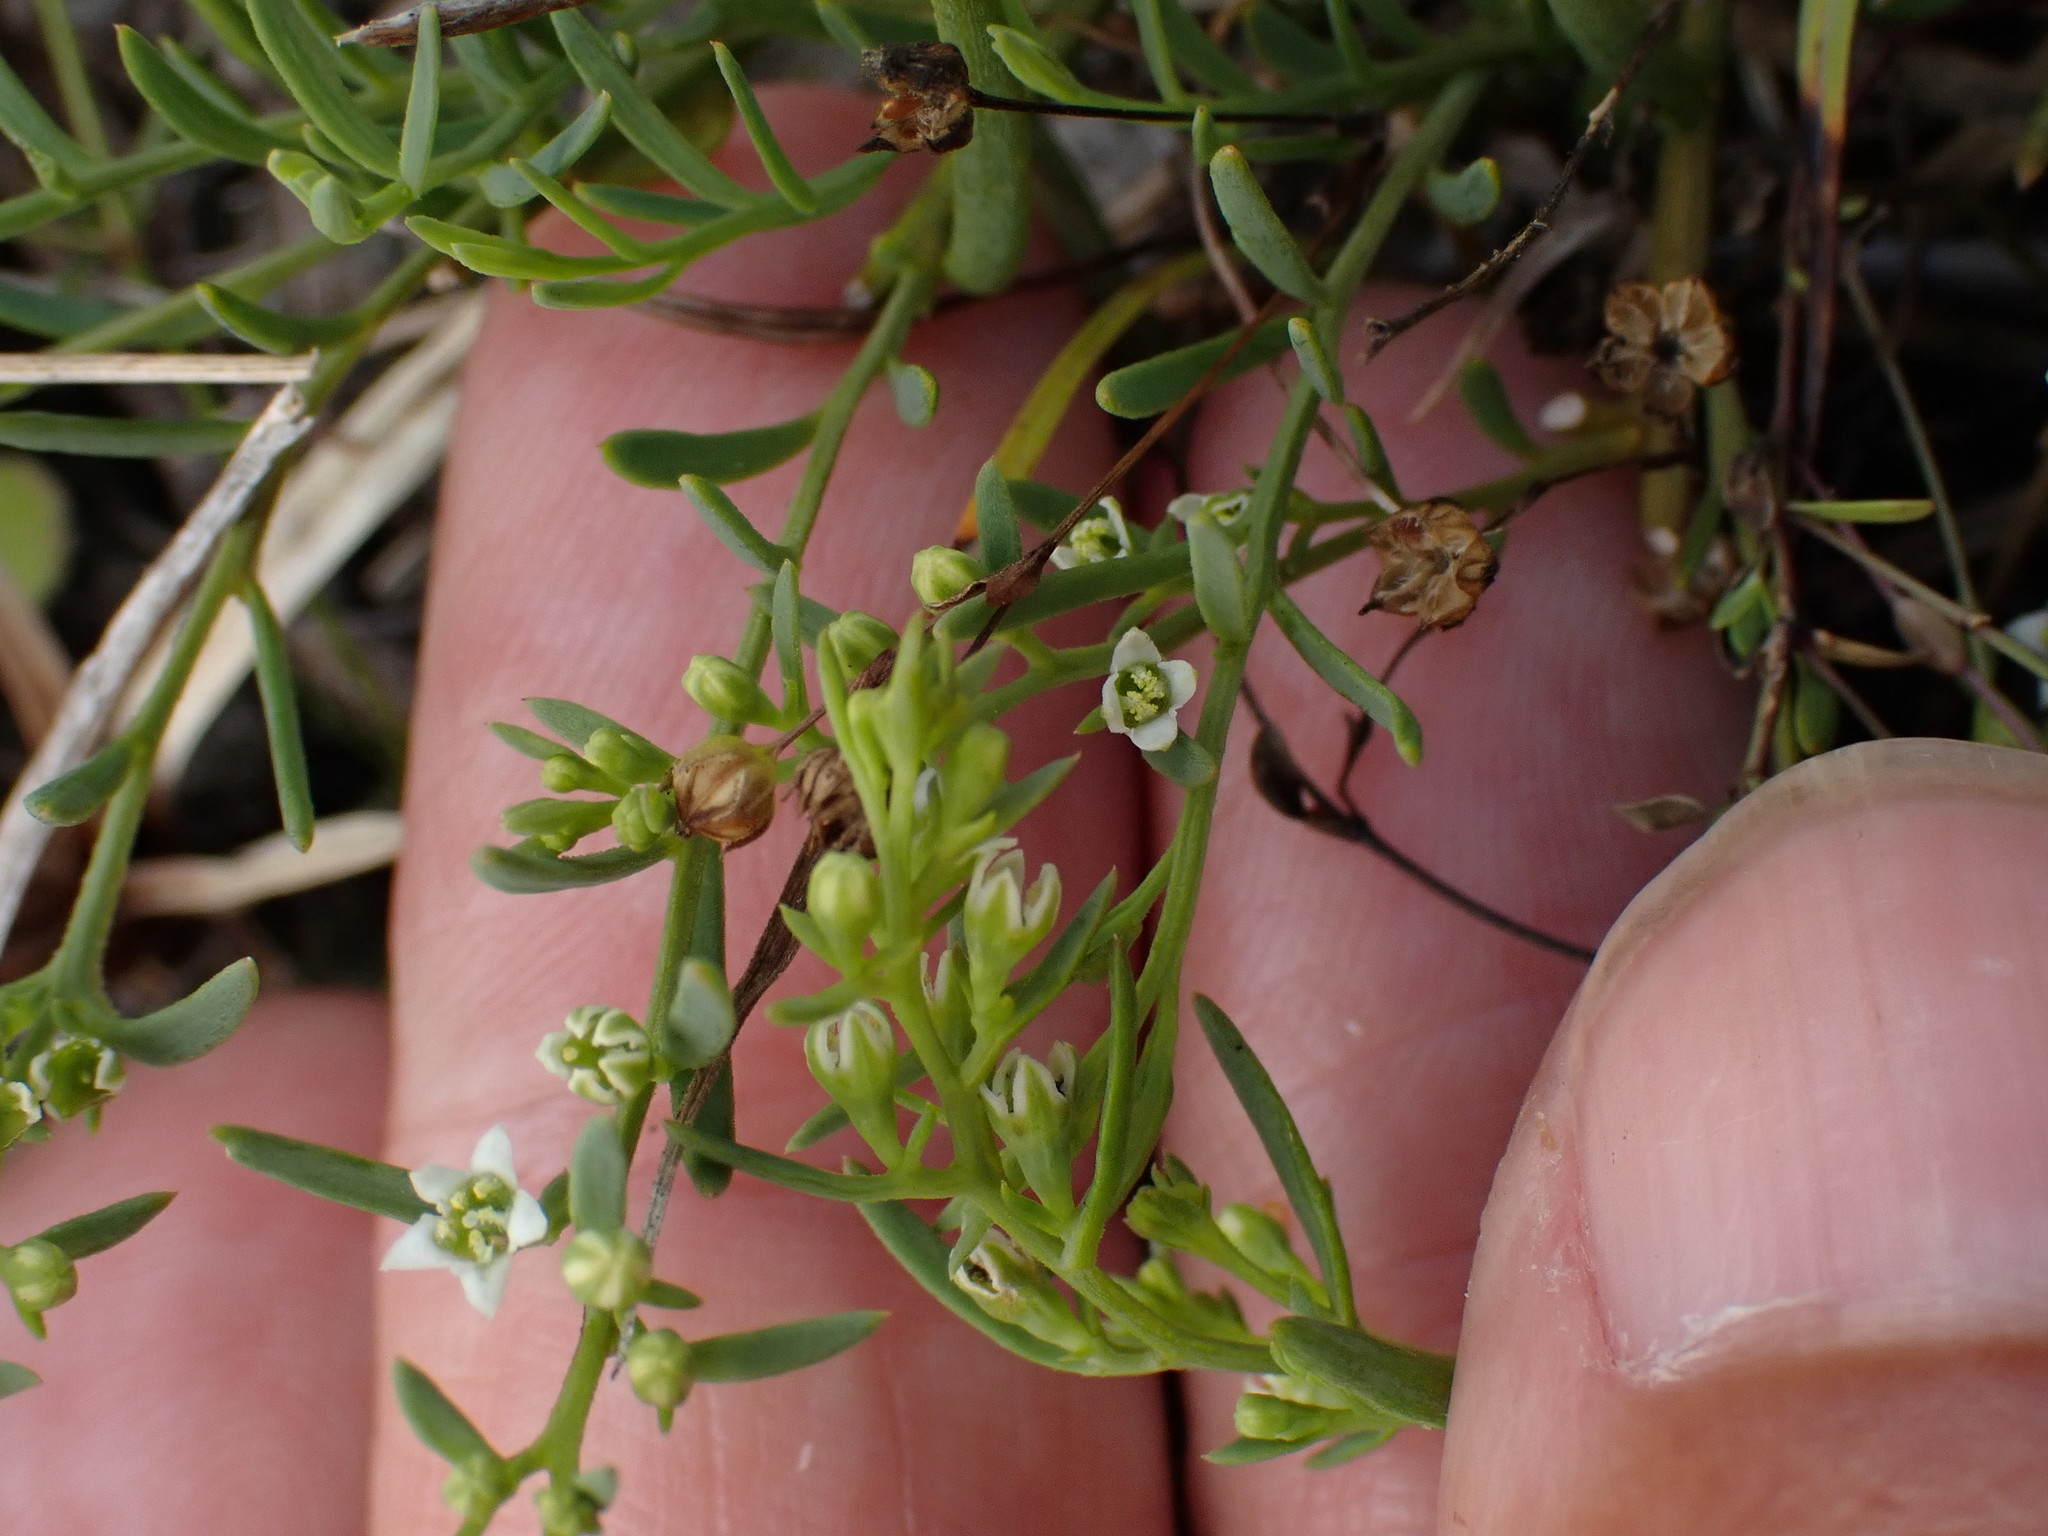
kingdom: Plantae
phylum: Tracheophyta
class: Magnoliopsida
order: Santalales
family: Thesiaceae
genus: Thesium
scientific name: Thesium humifusum
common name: Bastard-toadflax
